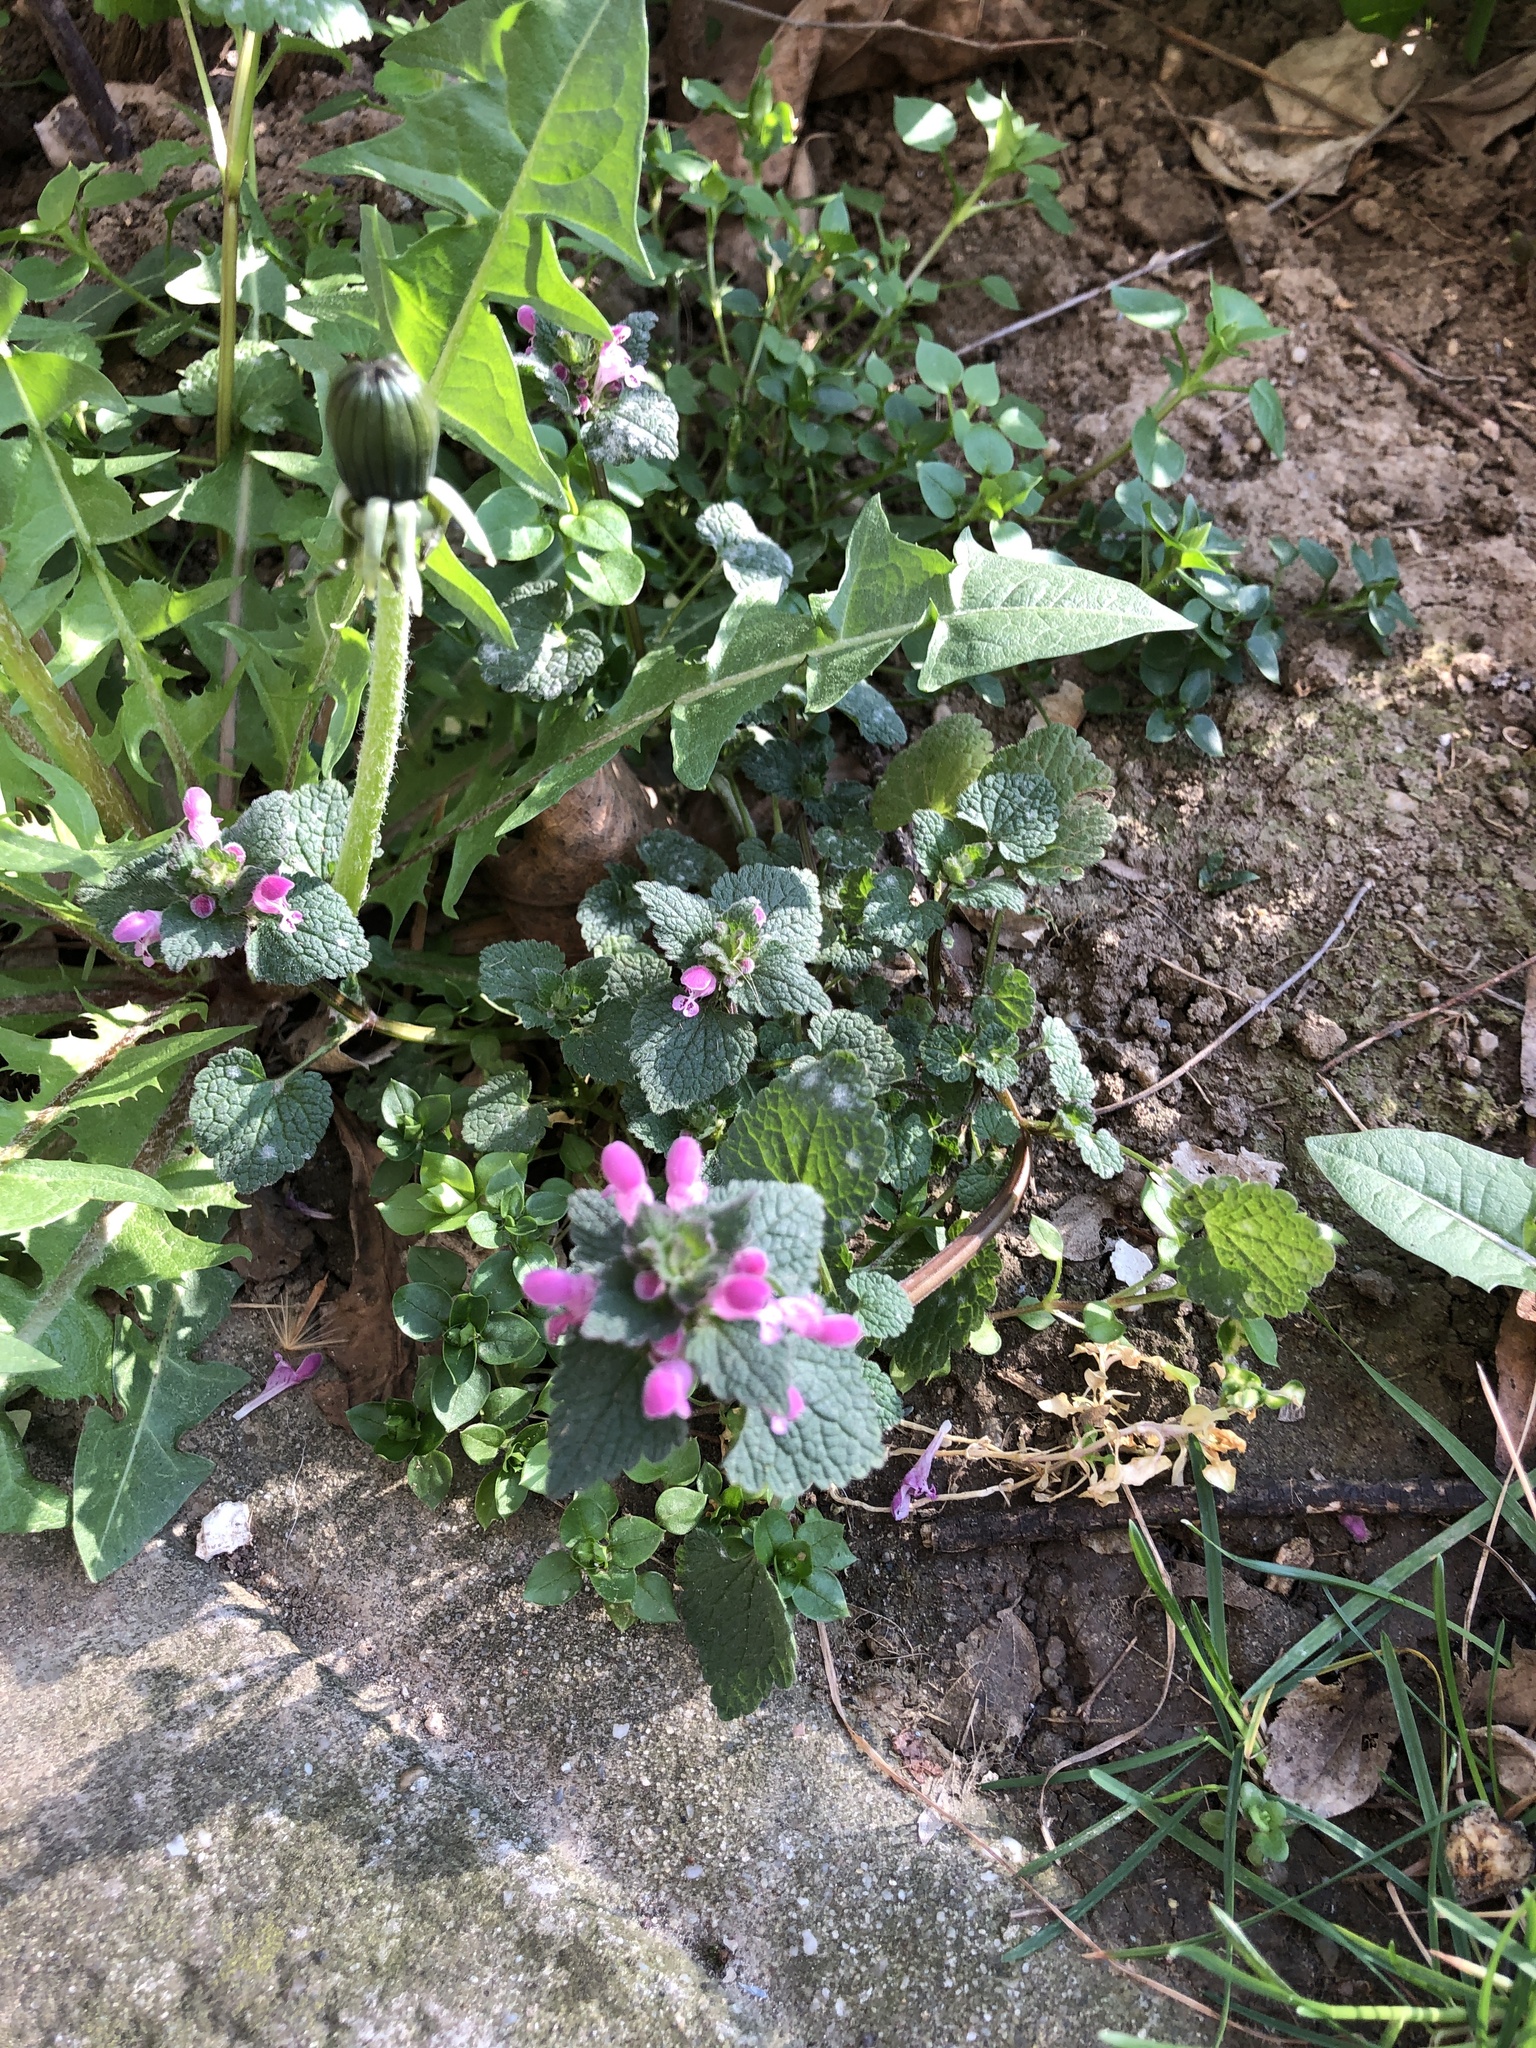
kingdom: Plantae
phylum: Tracheophyta
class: Magnoliopsida
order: Lamiales
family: Lamiaceae
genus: Lamium
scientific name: Lamium purpureum
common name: Red dead-nettle
